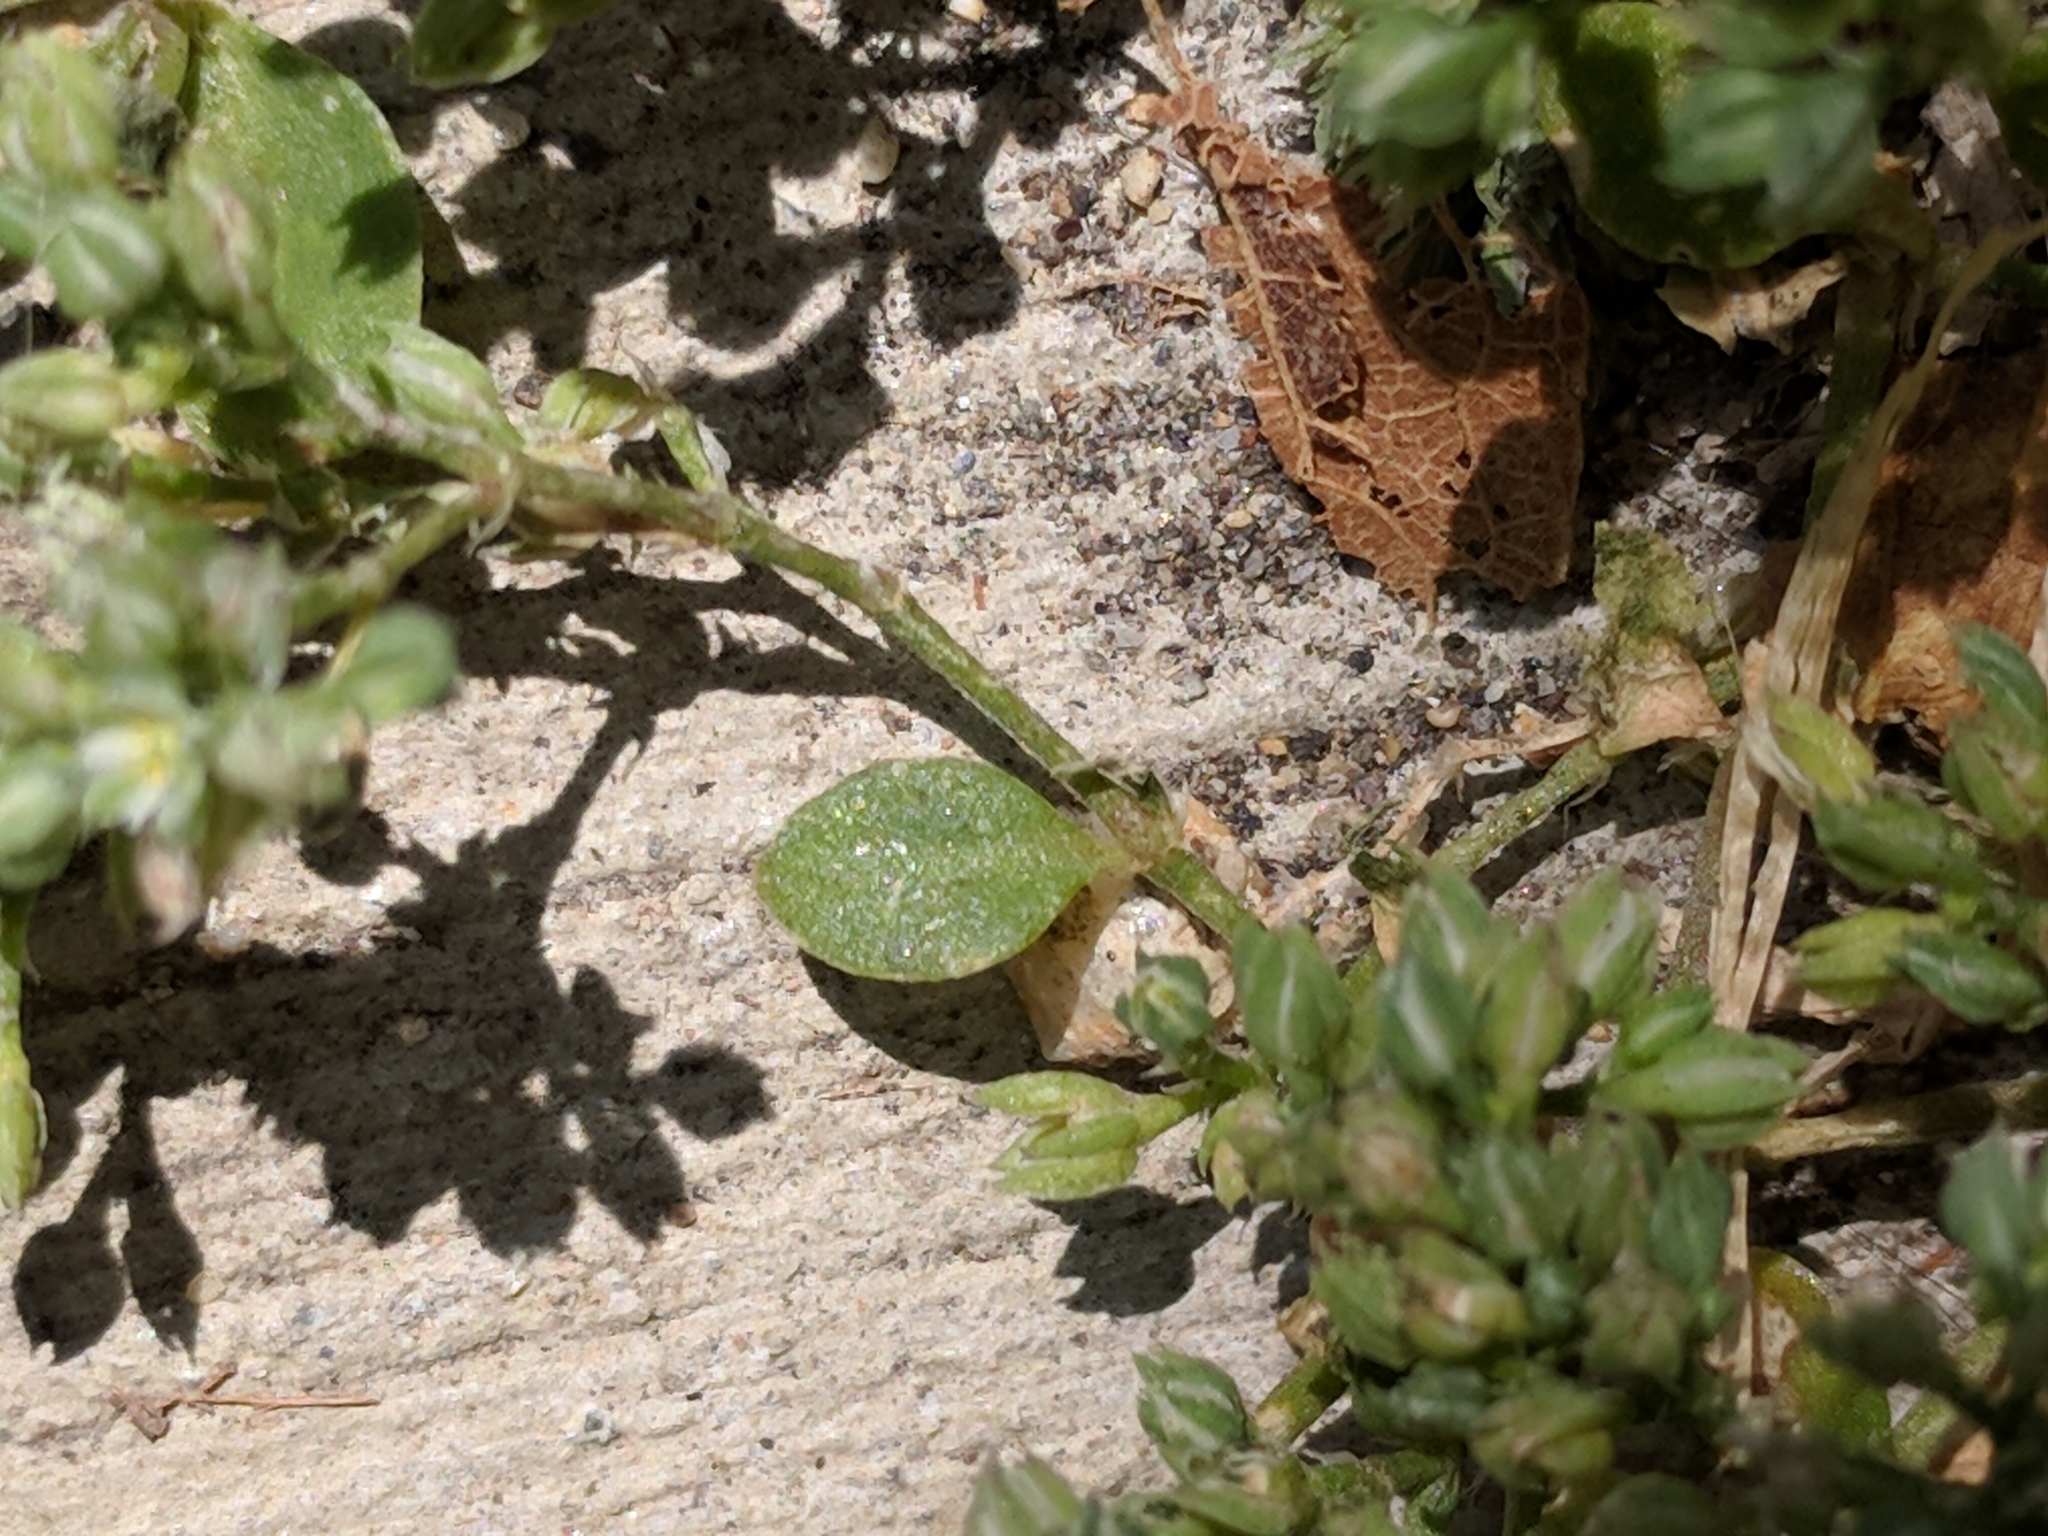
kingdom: Plantae
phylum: Tracheophyta
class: Magnoliopsida
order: Caryophyllales
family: Caryophyllaceae
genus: Polycarpon
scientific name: Polycarpon tetraphyllum
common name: Four-leaved all-seed
